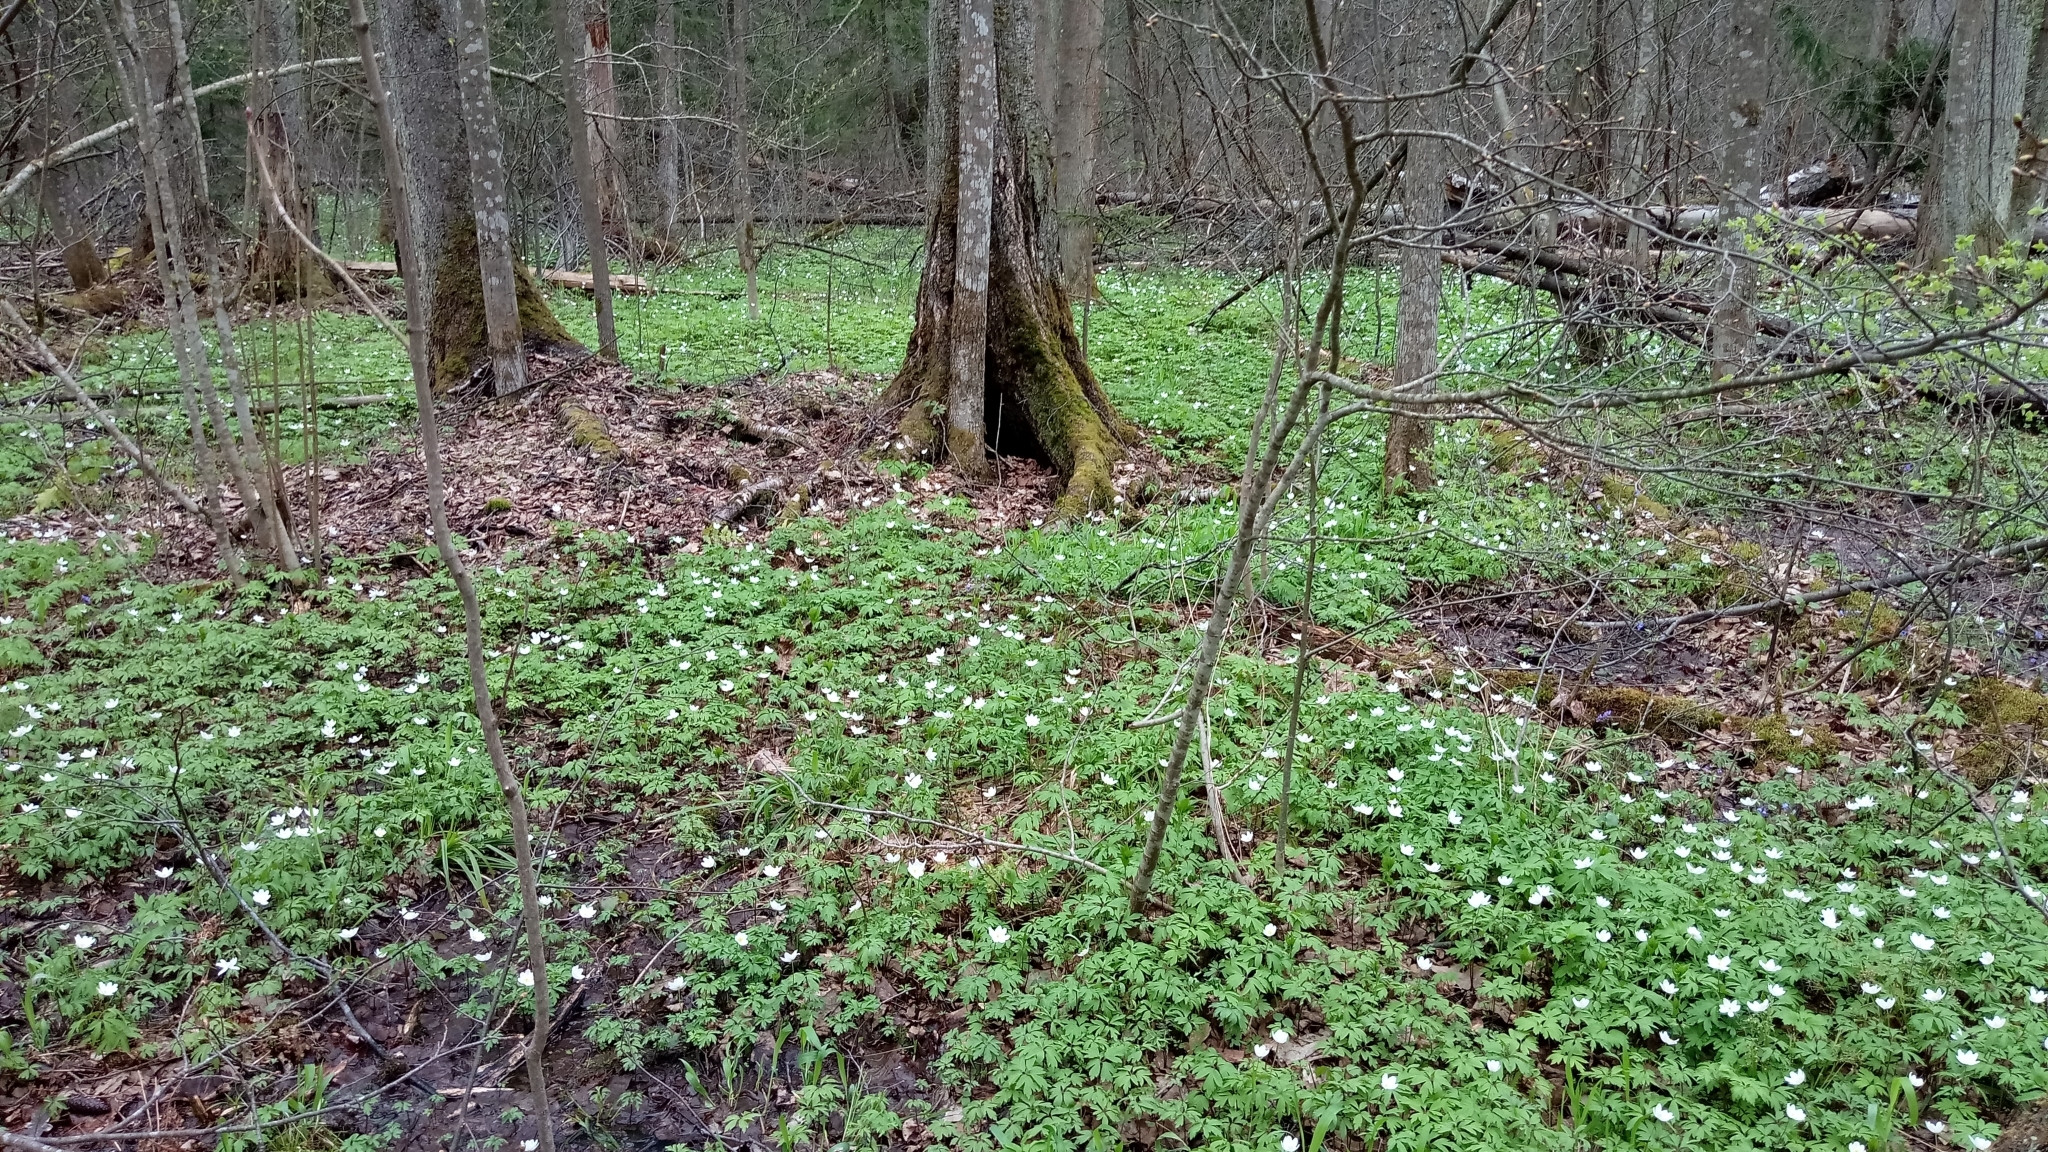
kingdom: Plantae
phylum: Tracheophyta
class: Magnoliopsida
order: Ranunculales
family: Ranunculaceae
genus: Anemone
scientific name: Anemone nemorosa
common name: Wood anemone
